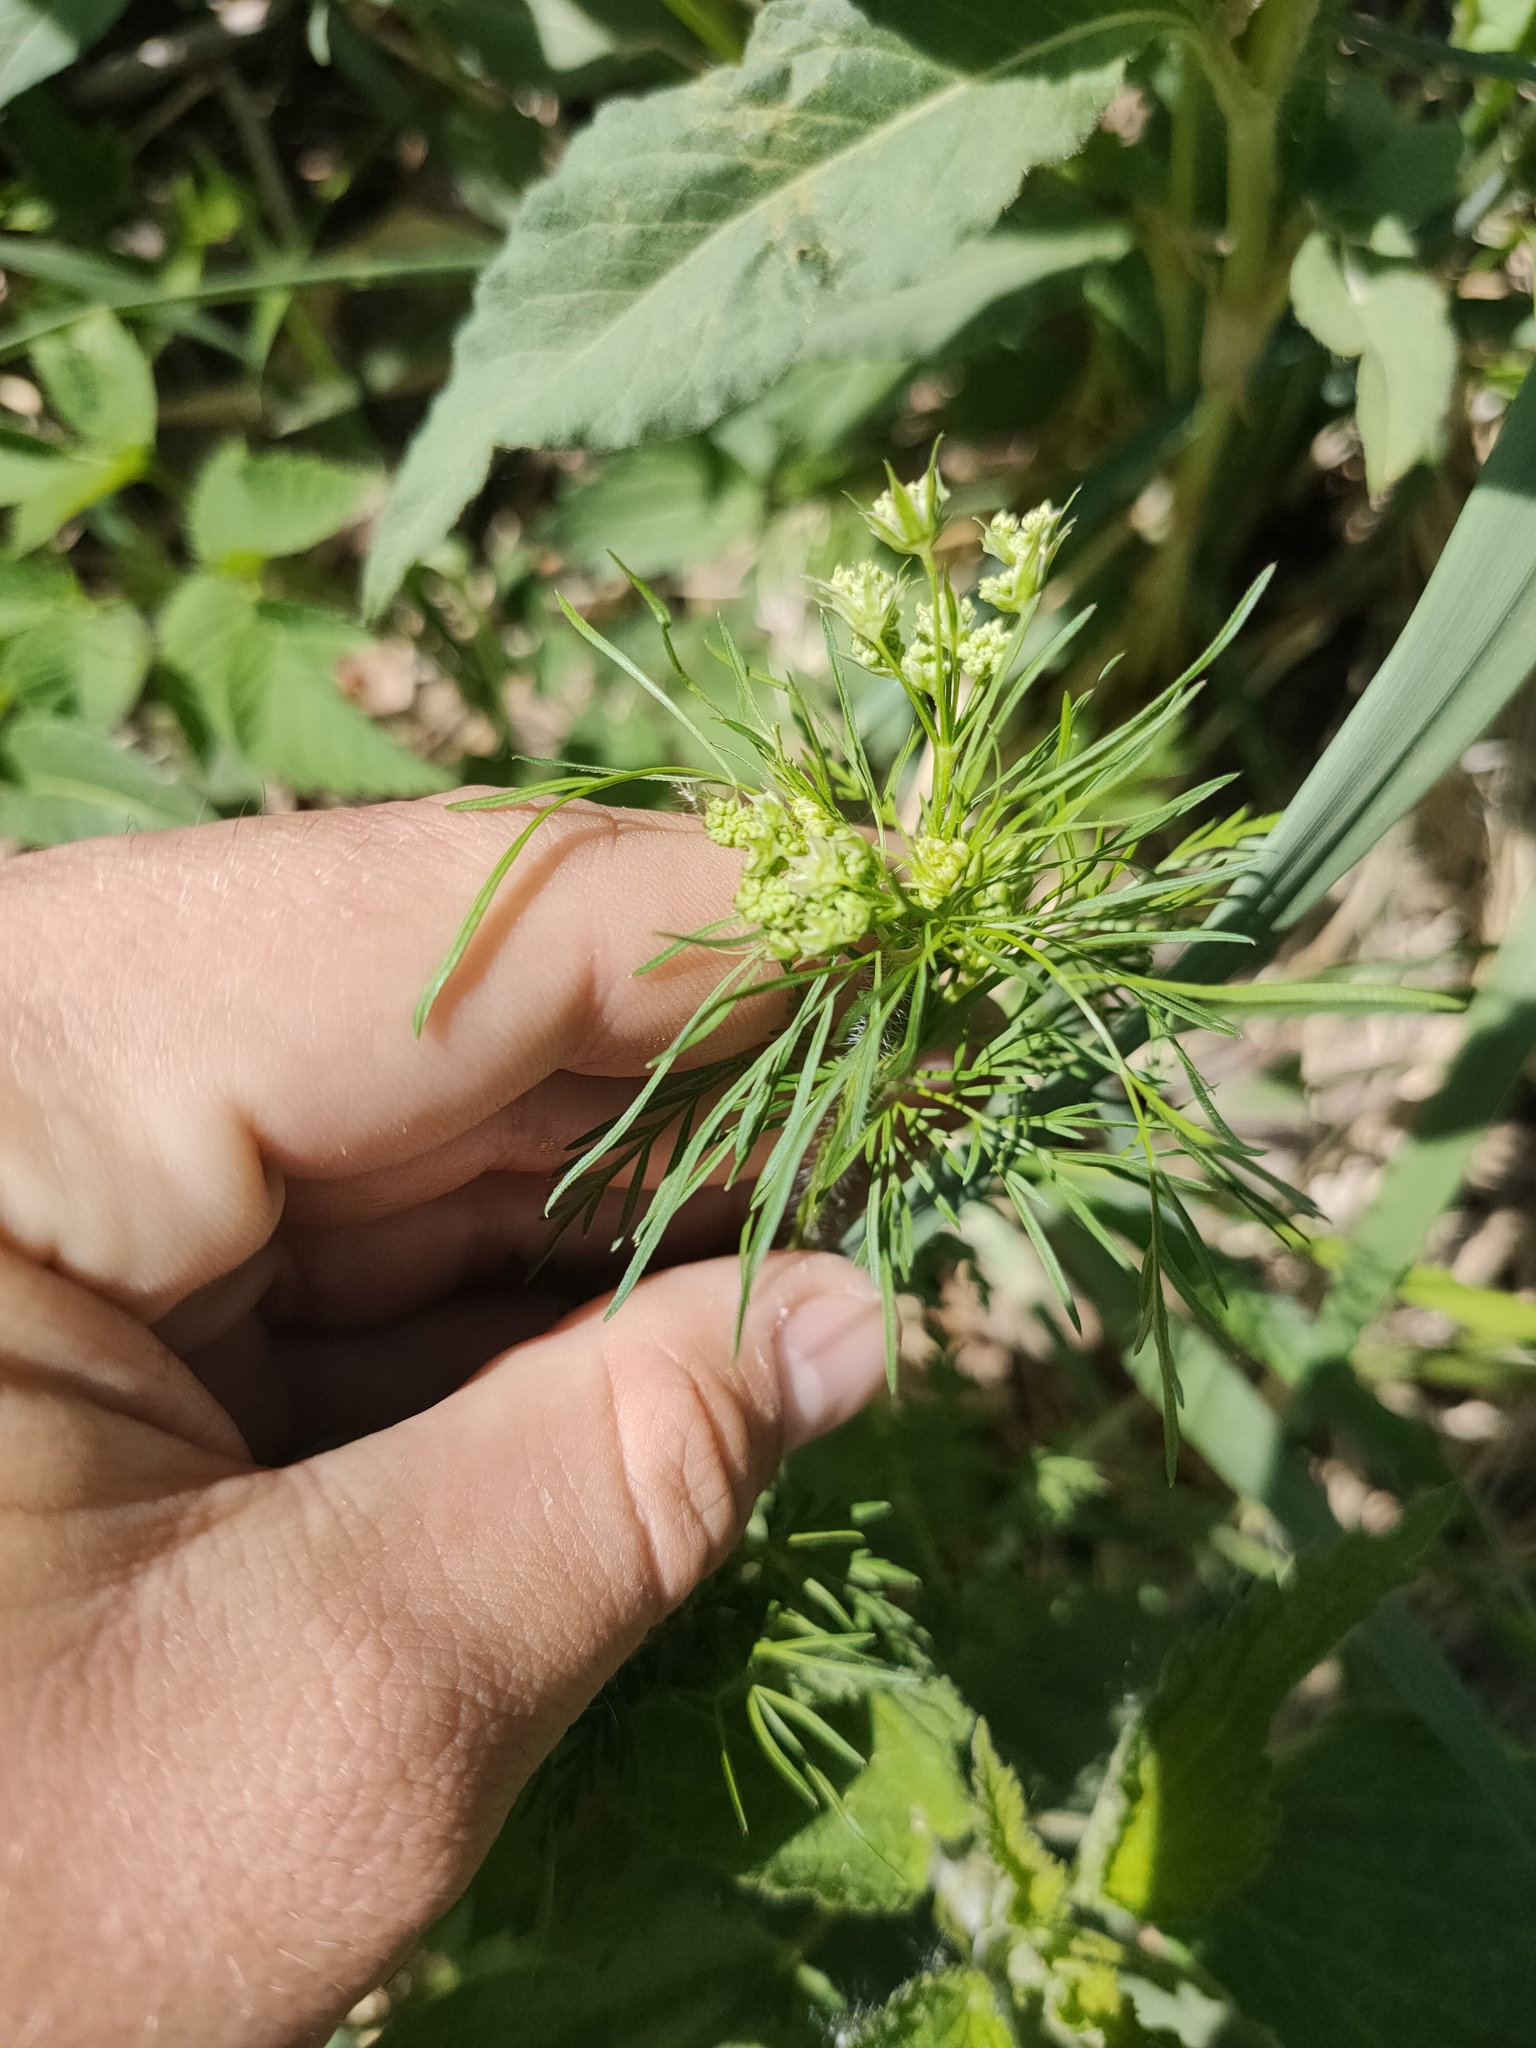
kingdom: Plantae
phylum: Tracheophyta
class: Magnoliopsida
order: Apiales
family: Apiaceae
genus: Chaerophyllum
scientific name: Chaerophyllum prescottii
